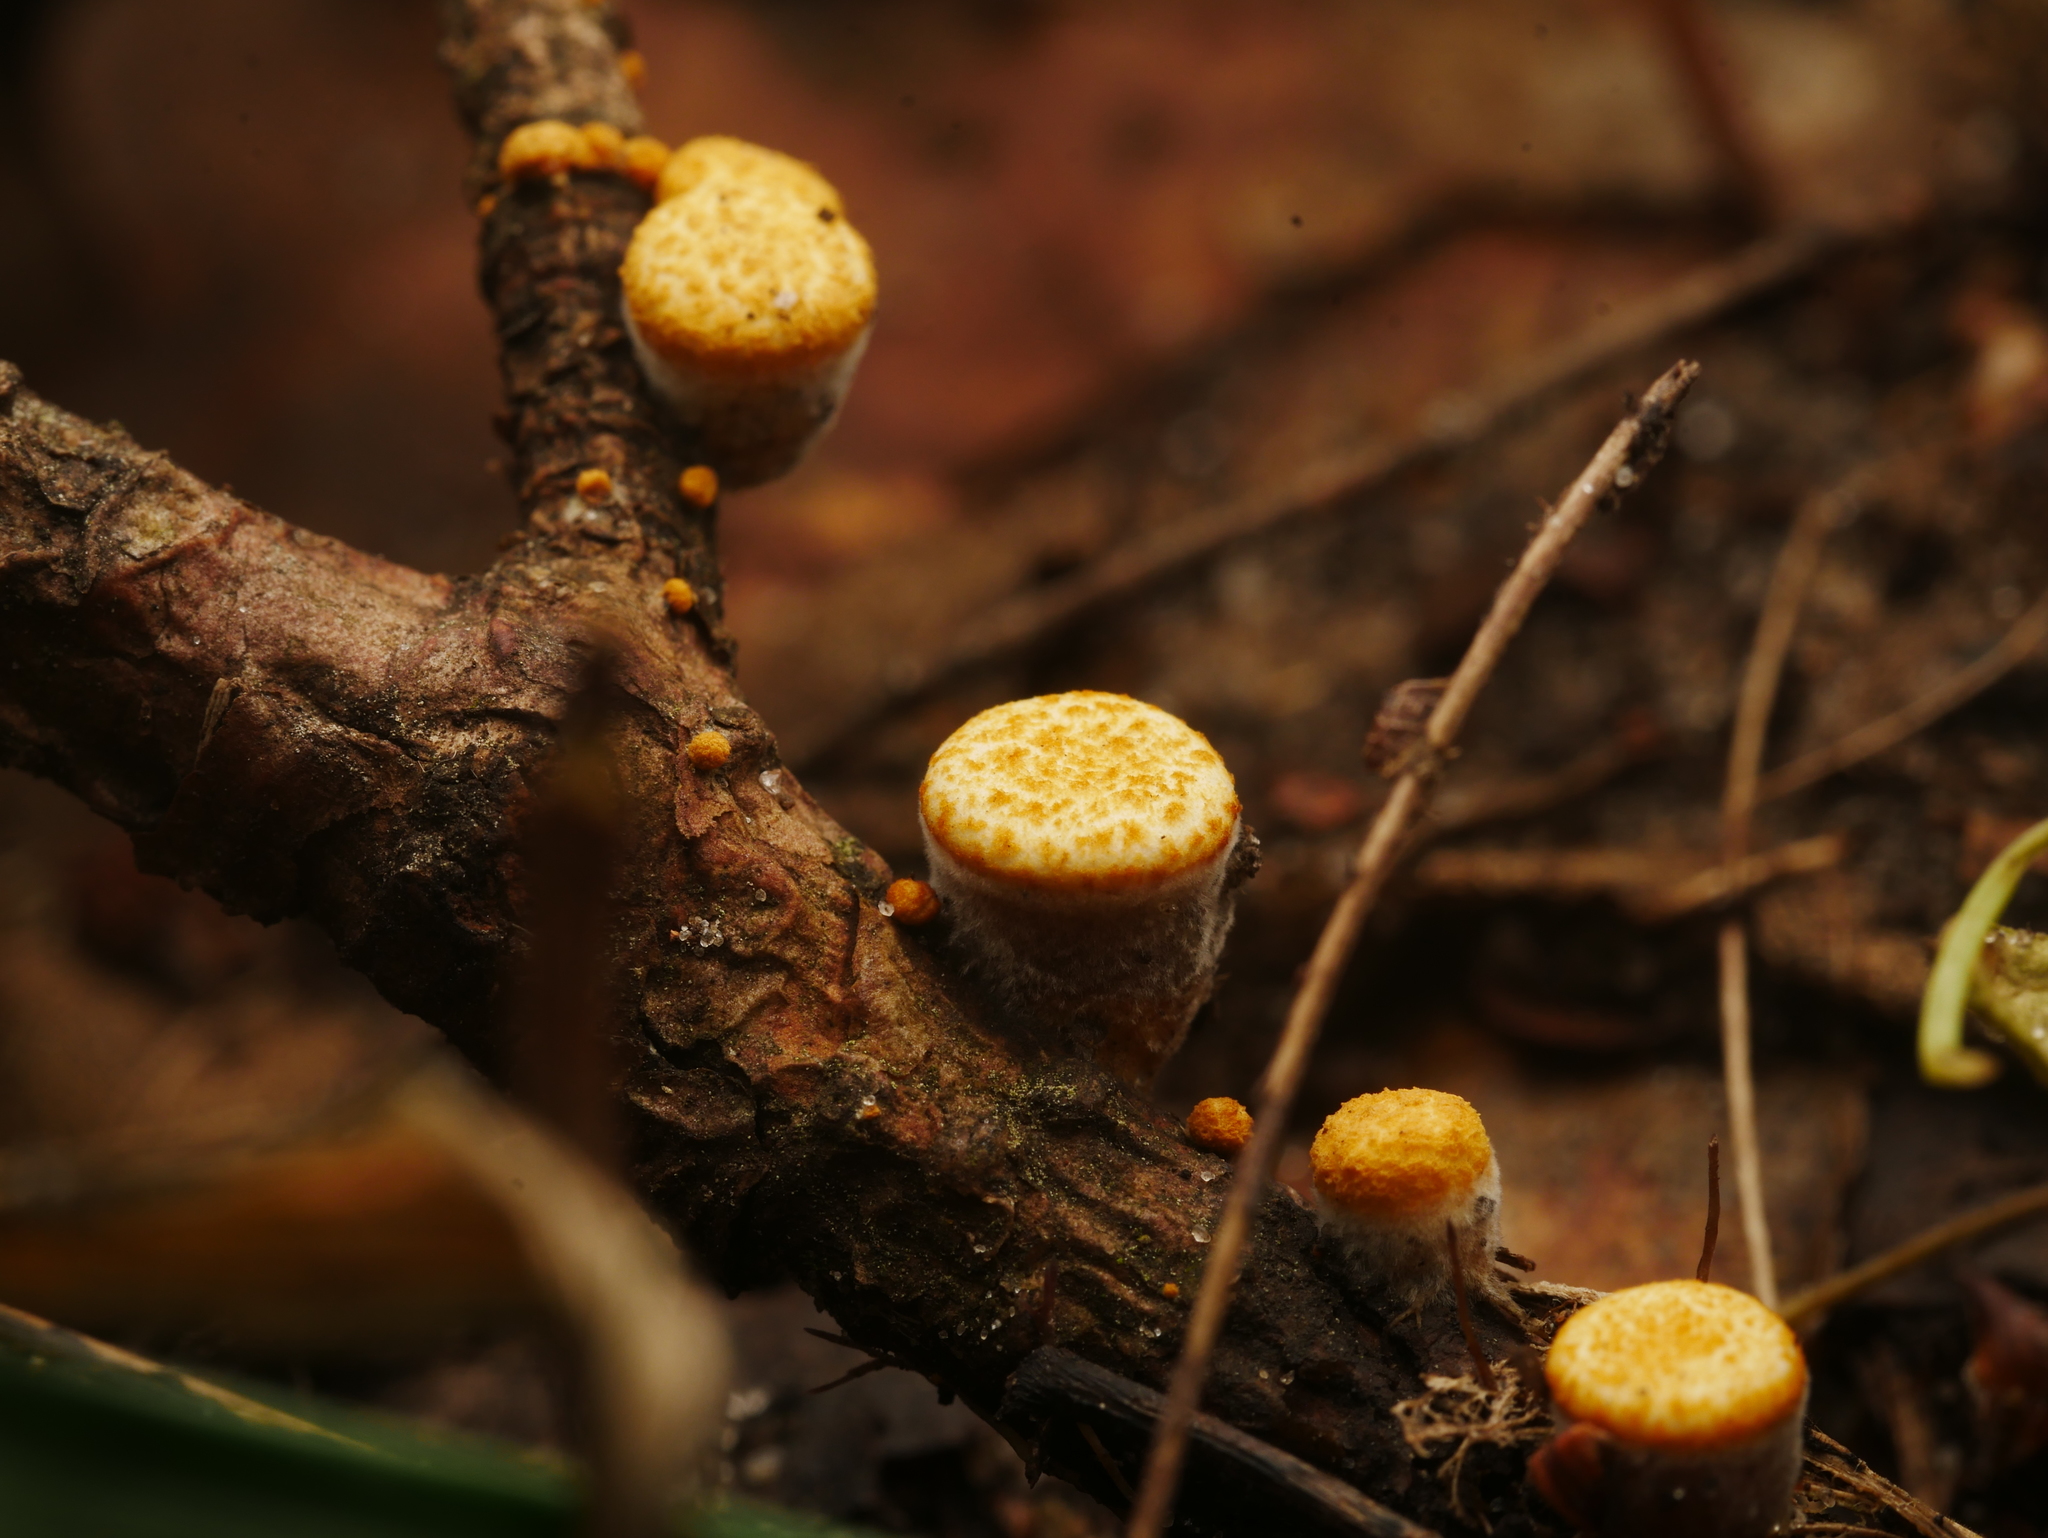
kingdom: Fungi
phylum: Basidiomycota
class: Agaricomycetes
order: Agaricales
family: Nidulariaceae
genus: Crucibulum
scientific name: Crucibulum laeve
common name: Common bird's nest
